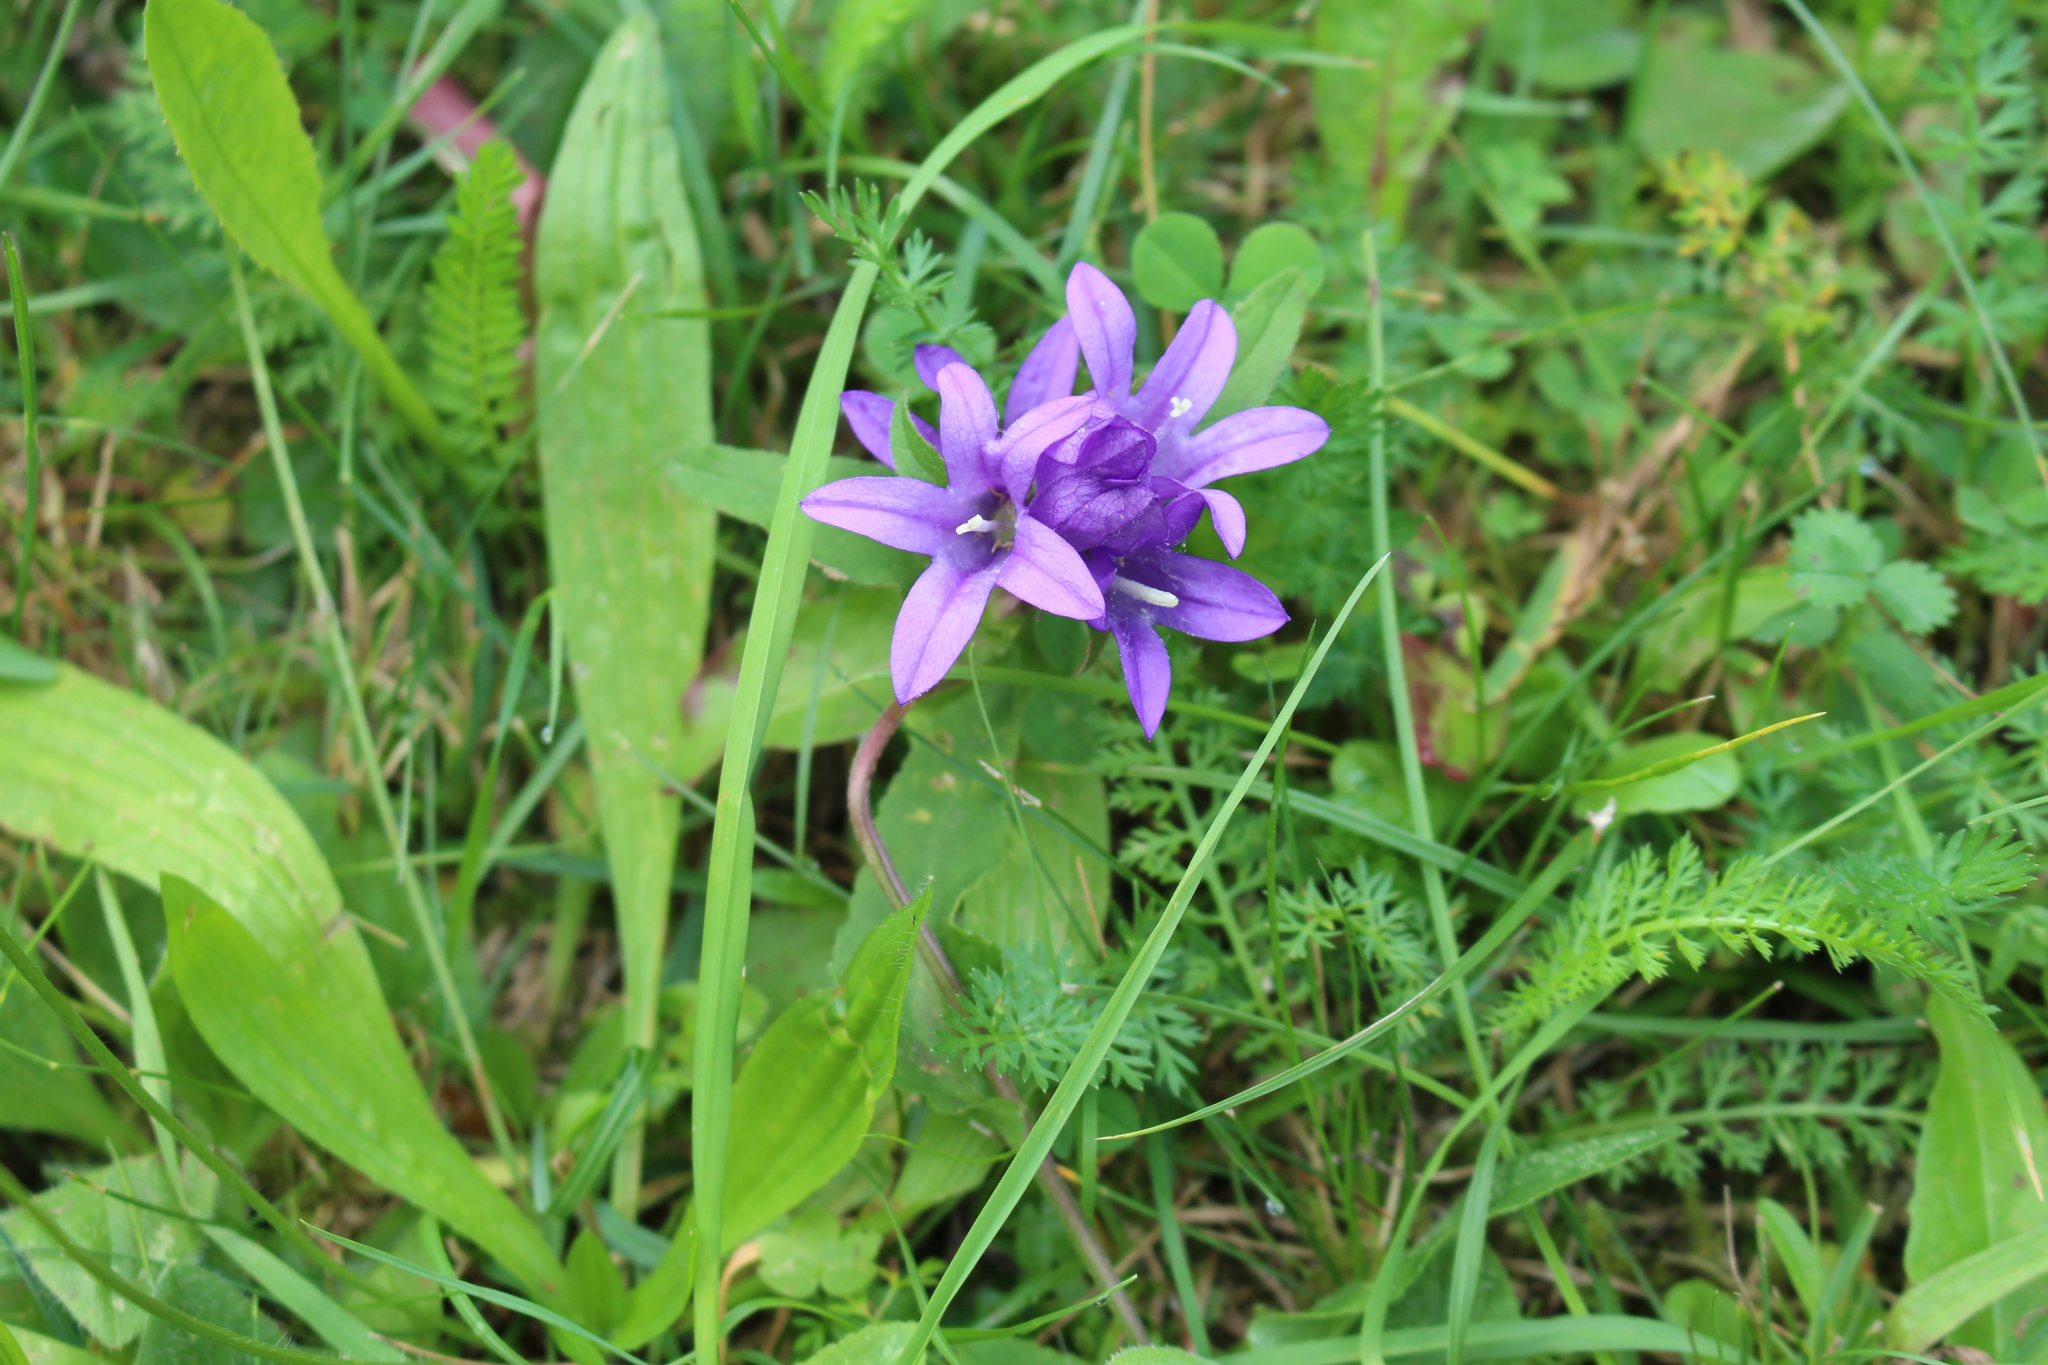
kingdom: Plantae
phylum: Tracheophyta
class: Magnoliopsida
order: Asterales
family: Campanulaceae
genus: Campanula
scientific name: Campanula glomerata
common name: Clustered bellflower
